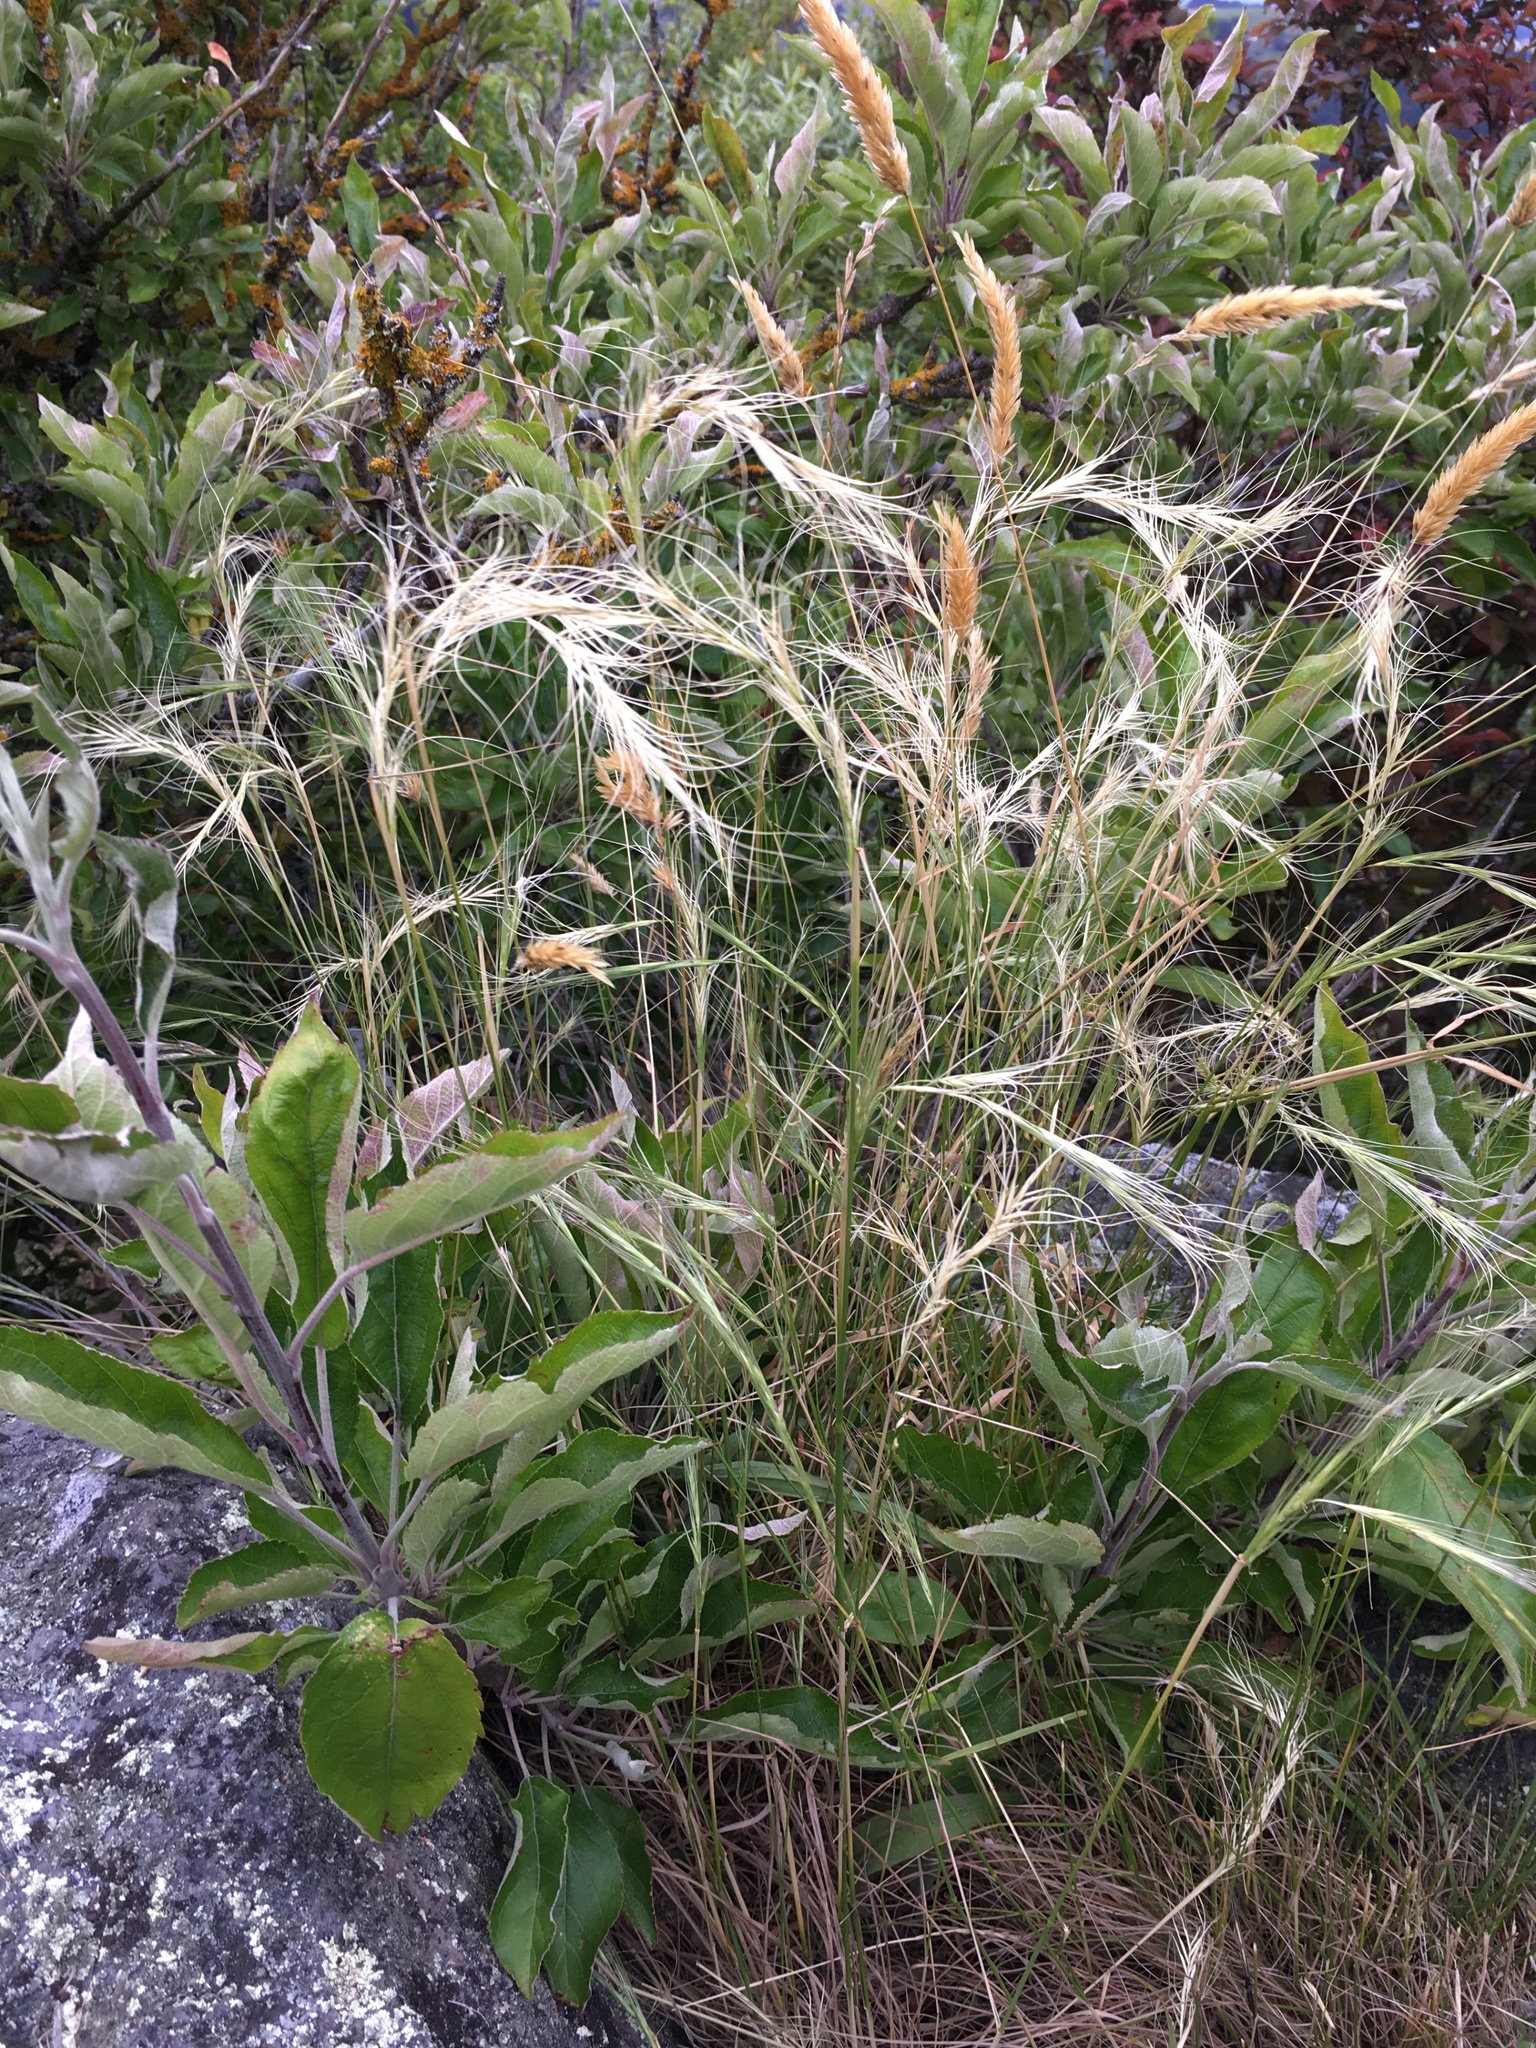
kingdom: Plantae
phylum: Tracheophyta
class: Liliopsida
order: Poales
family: Poaceae
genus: Anthosachne
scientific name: Anthosachne solandri
